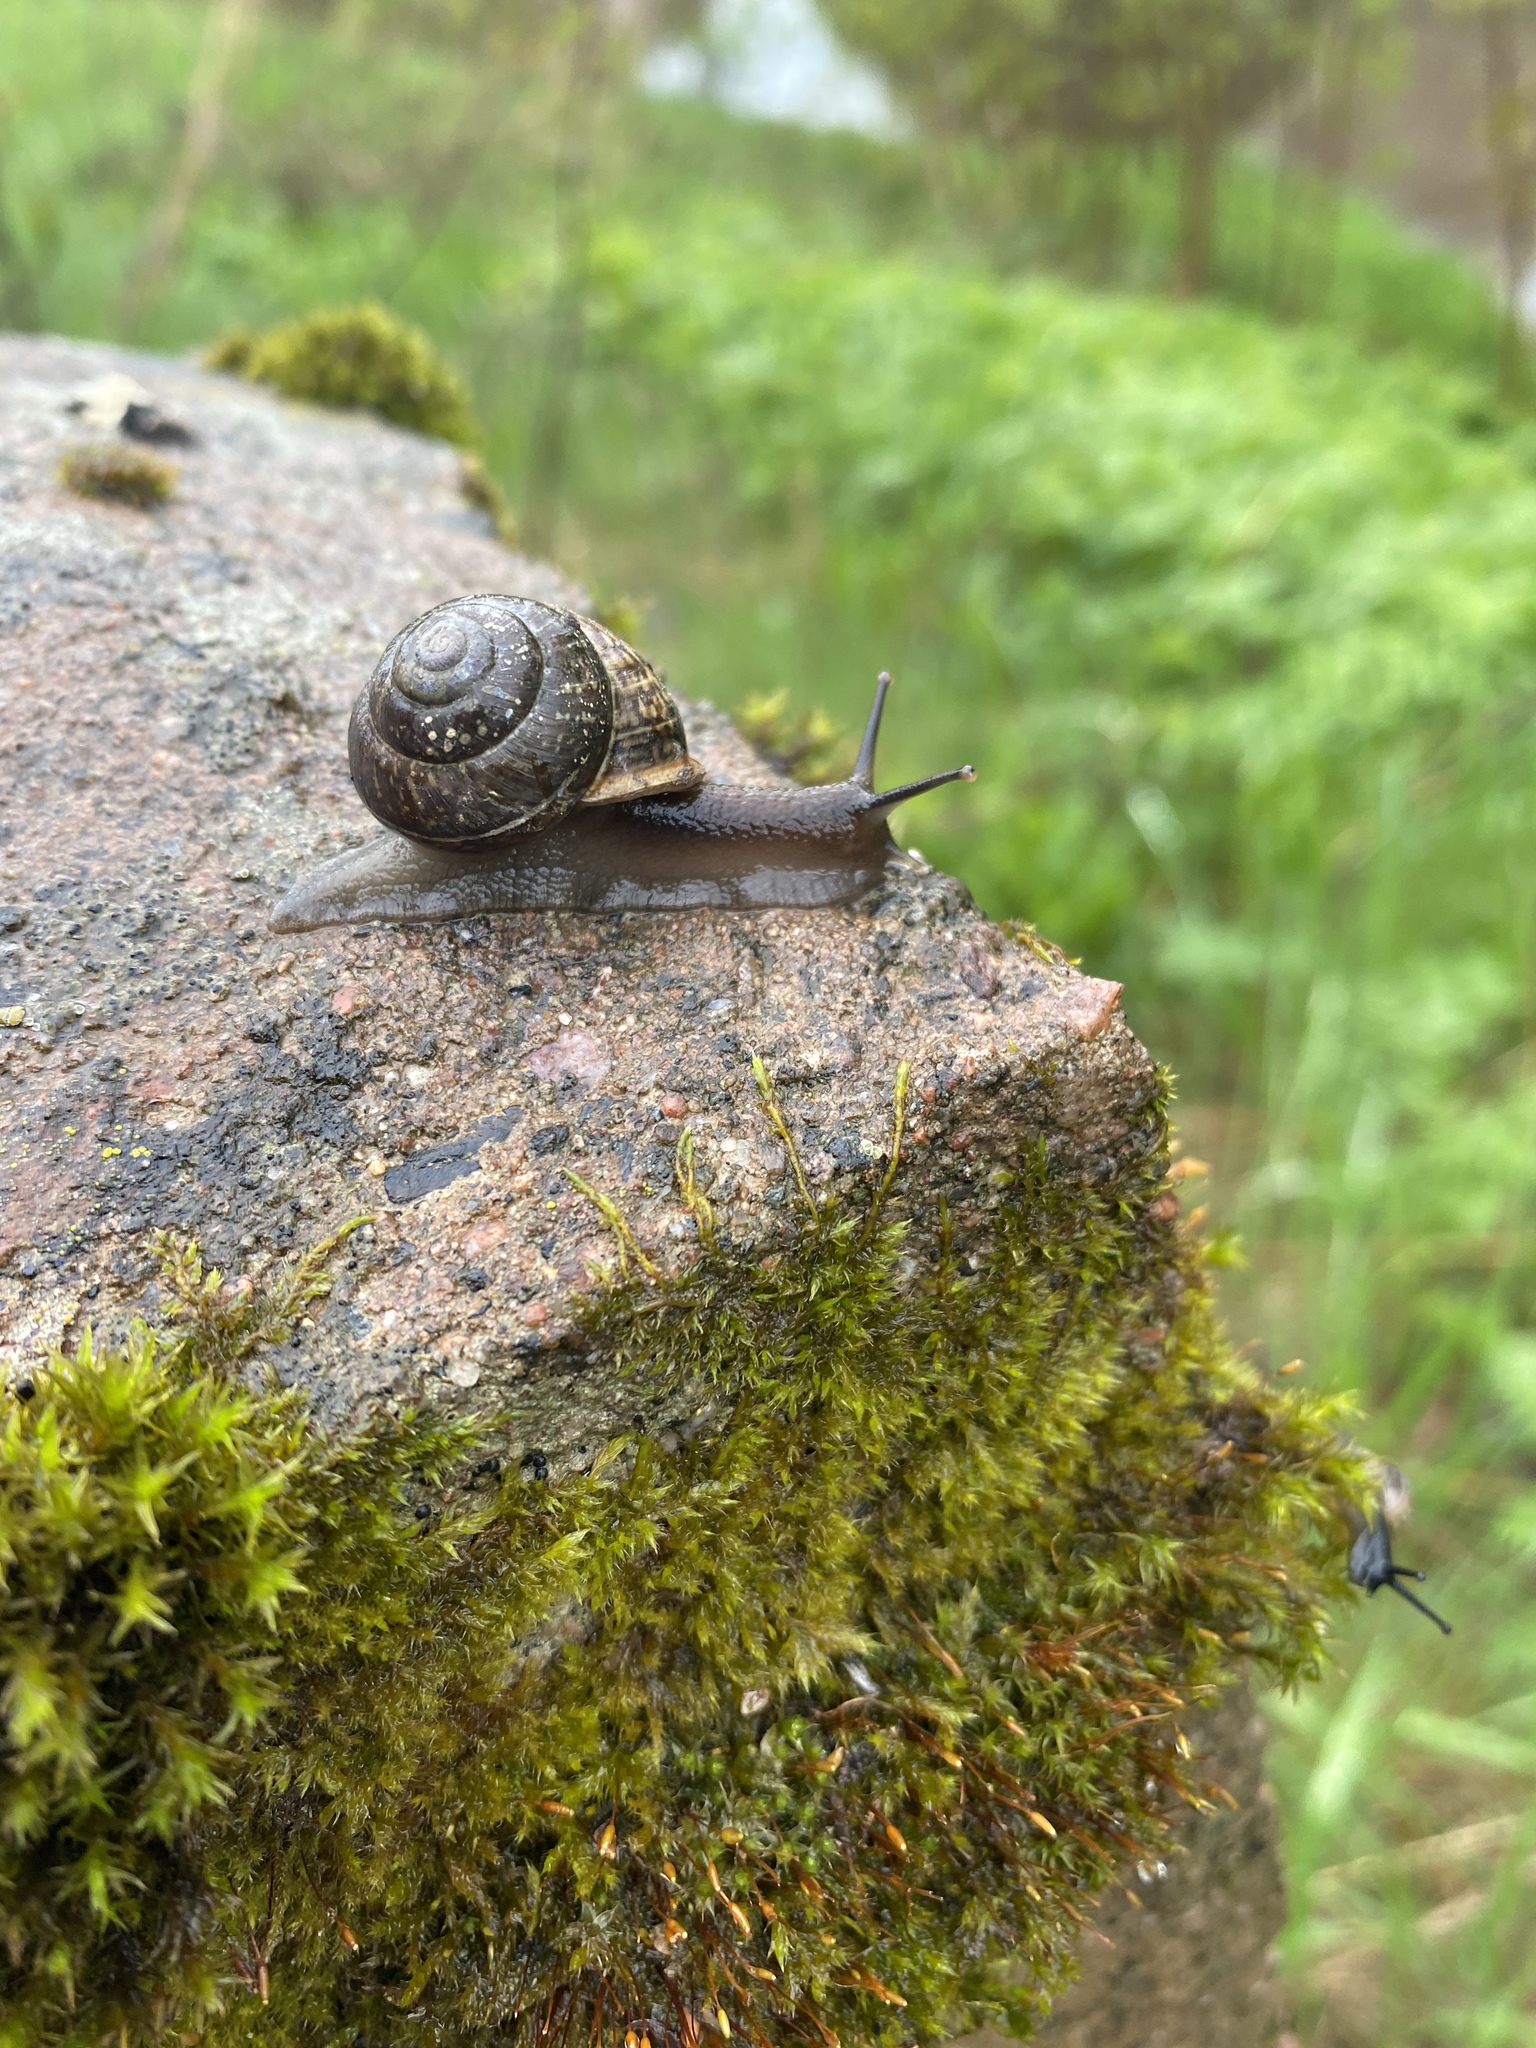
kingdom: Animalia
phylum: Mollusca
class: Gastropoda
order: Stylommatophora
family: Helicidae
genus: Arianta
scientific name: Arianta arbustorum
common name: Copse snail
